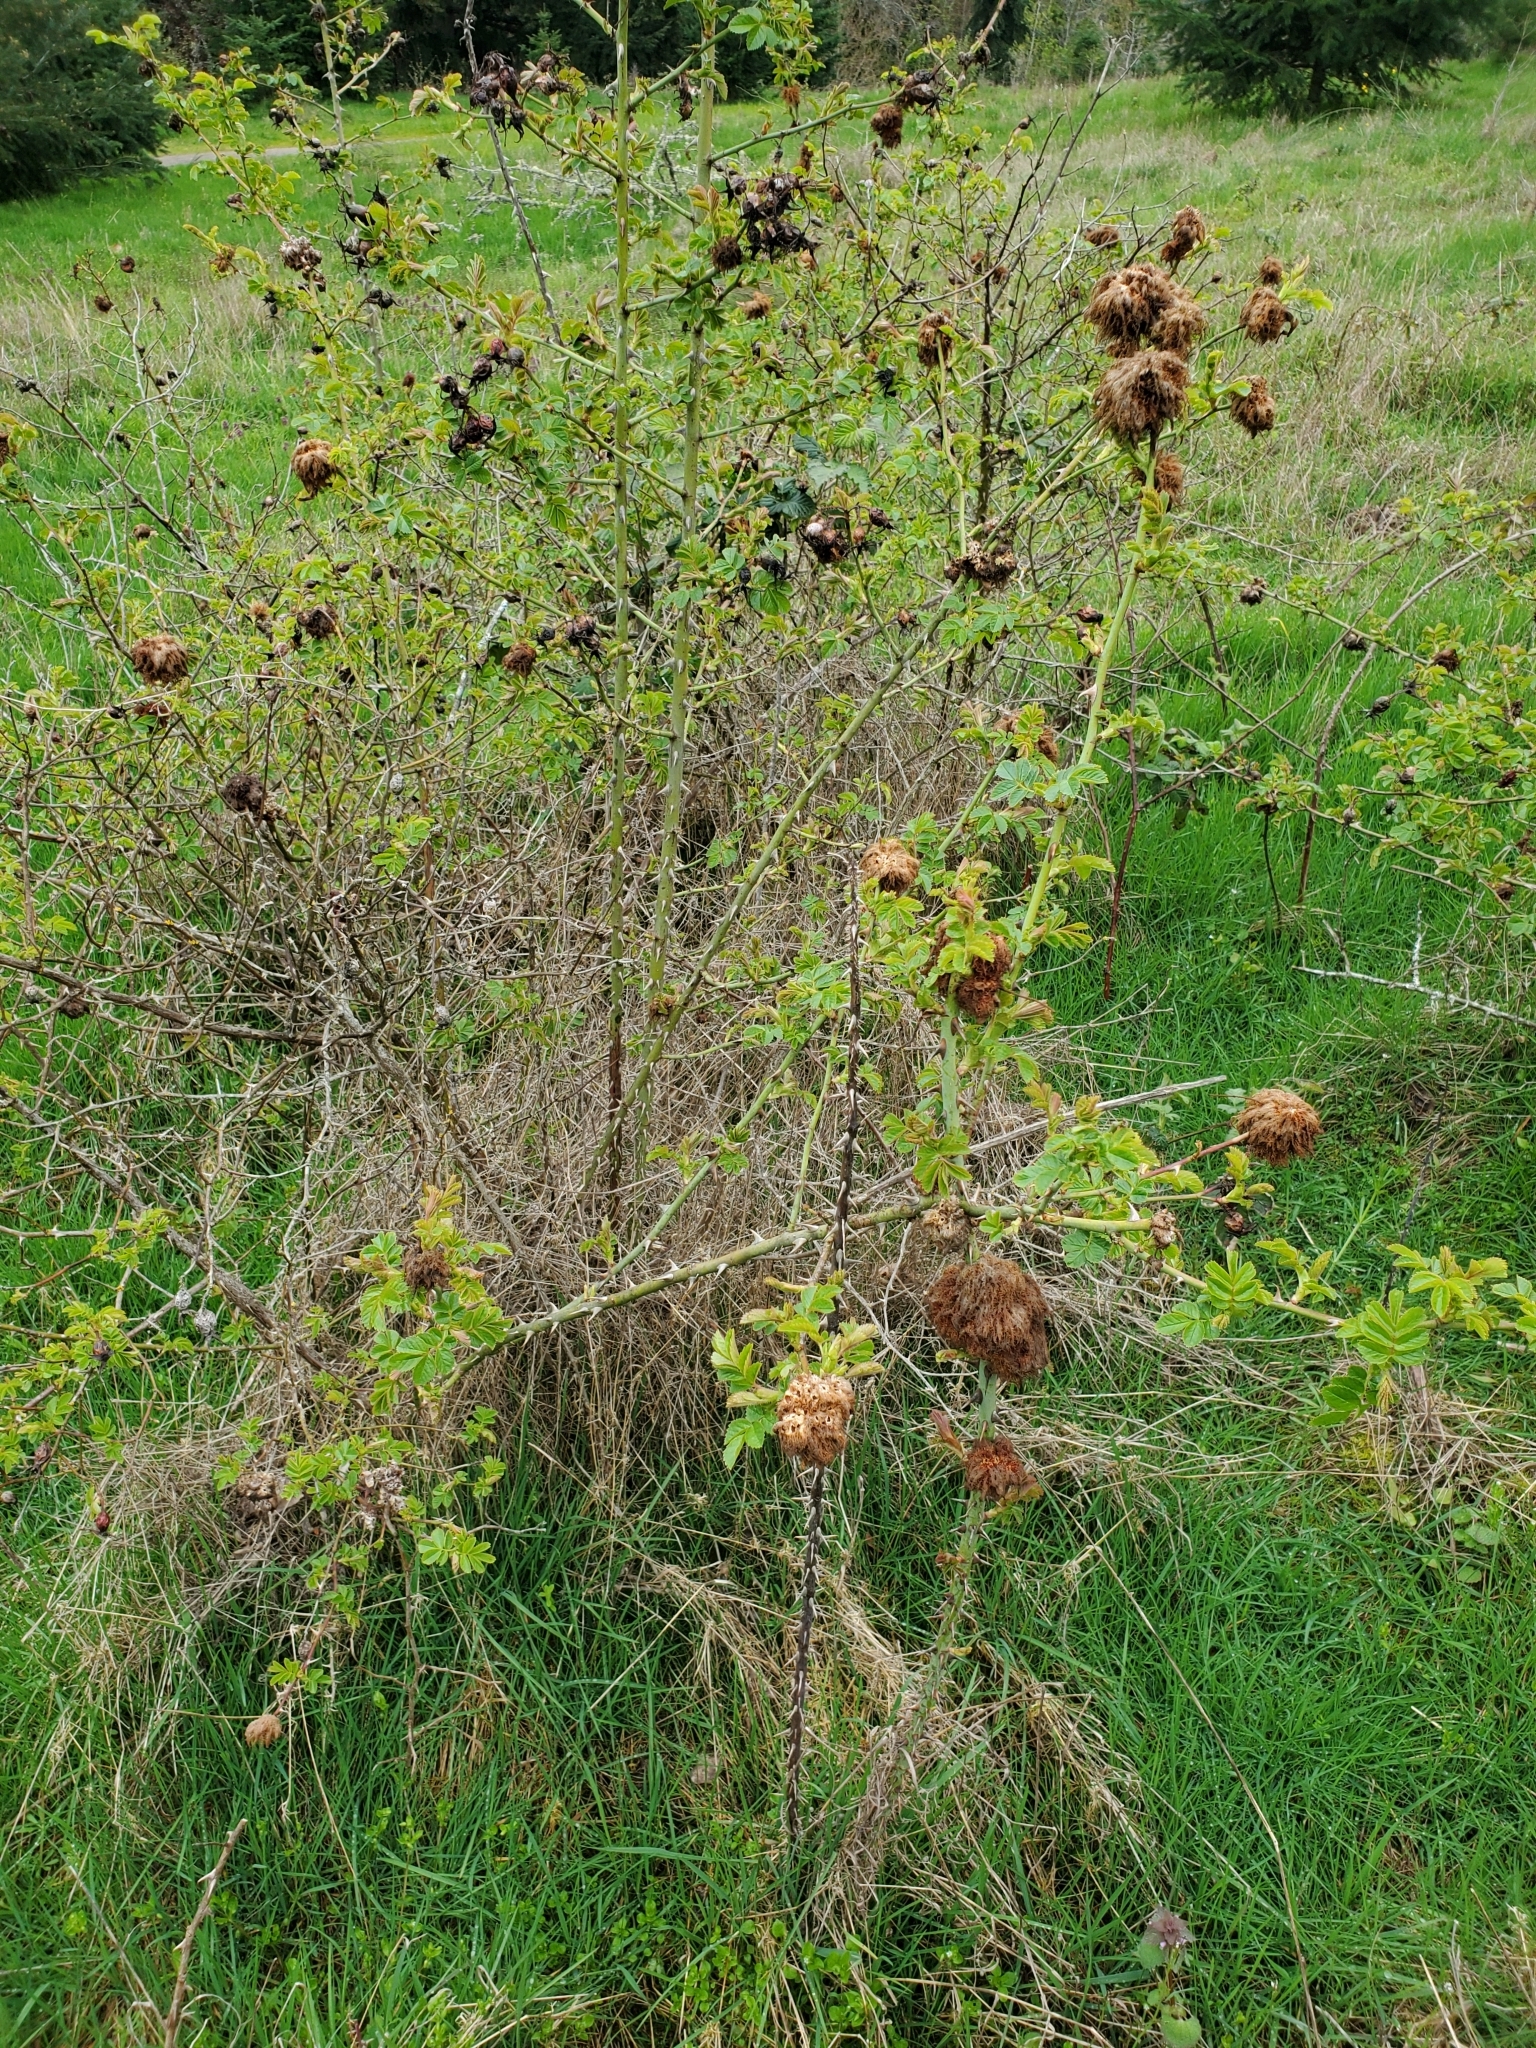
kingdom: Animalia
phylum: Arthropoda
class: Insecta
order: Hymenoptera
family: Cynipidae
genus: Diplolepis
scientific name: Diplolepis rosae
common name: Bedeguar gall
